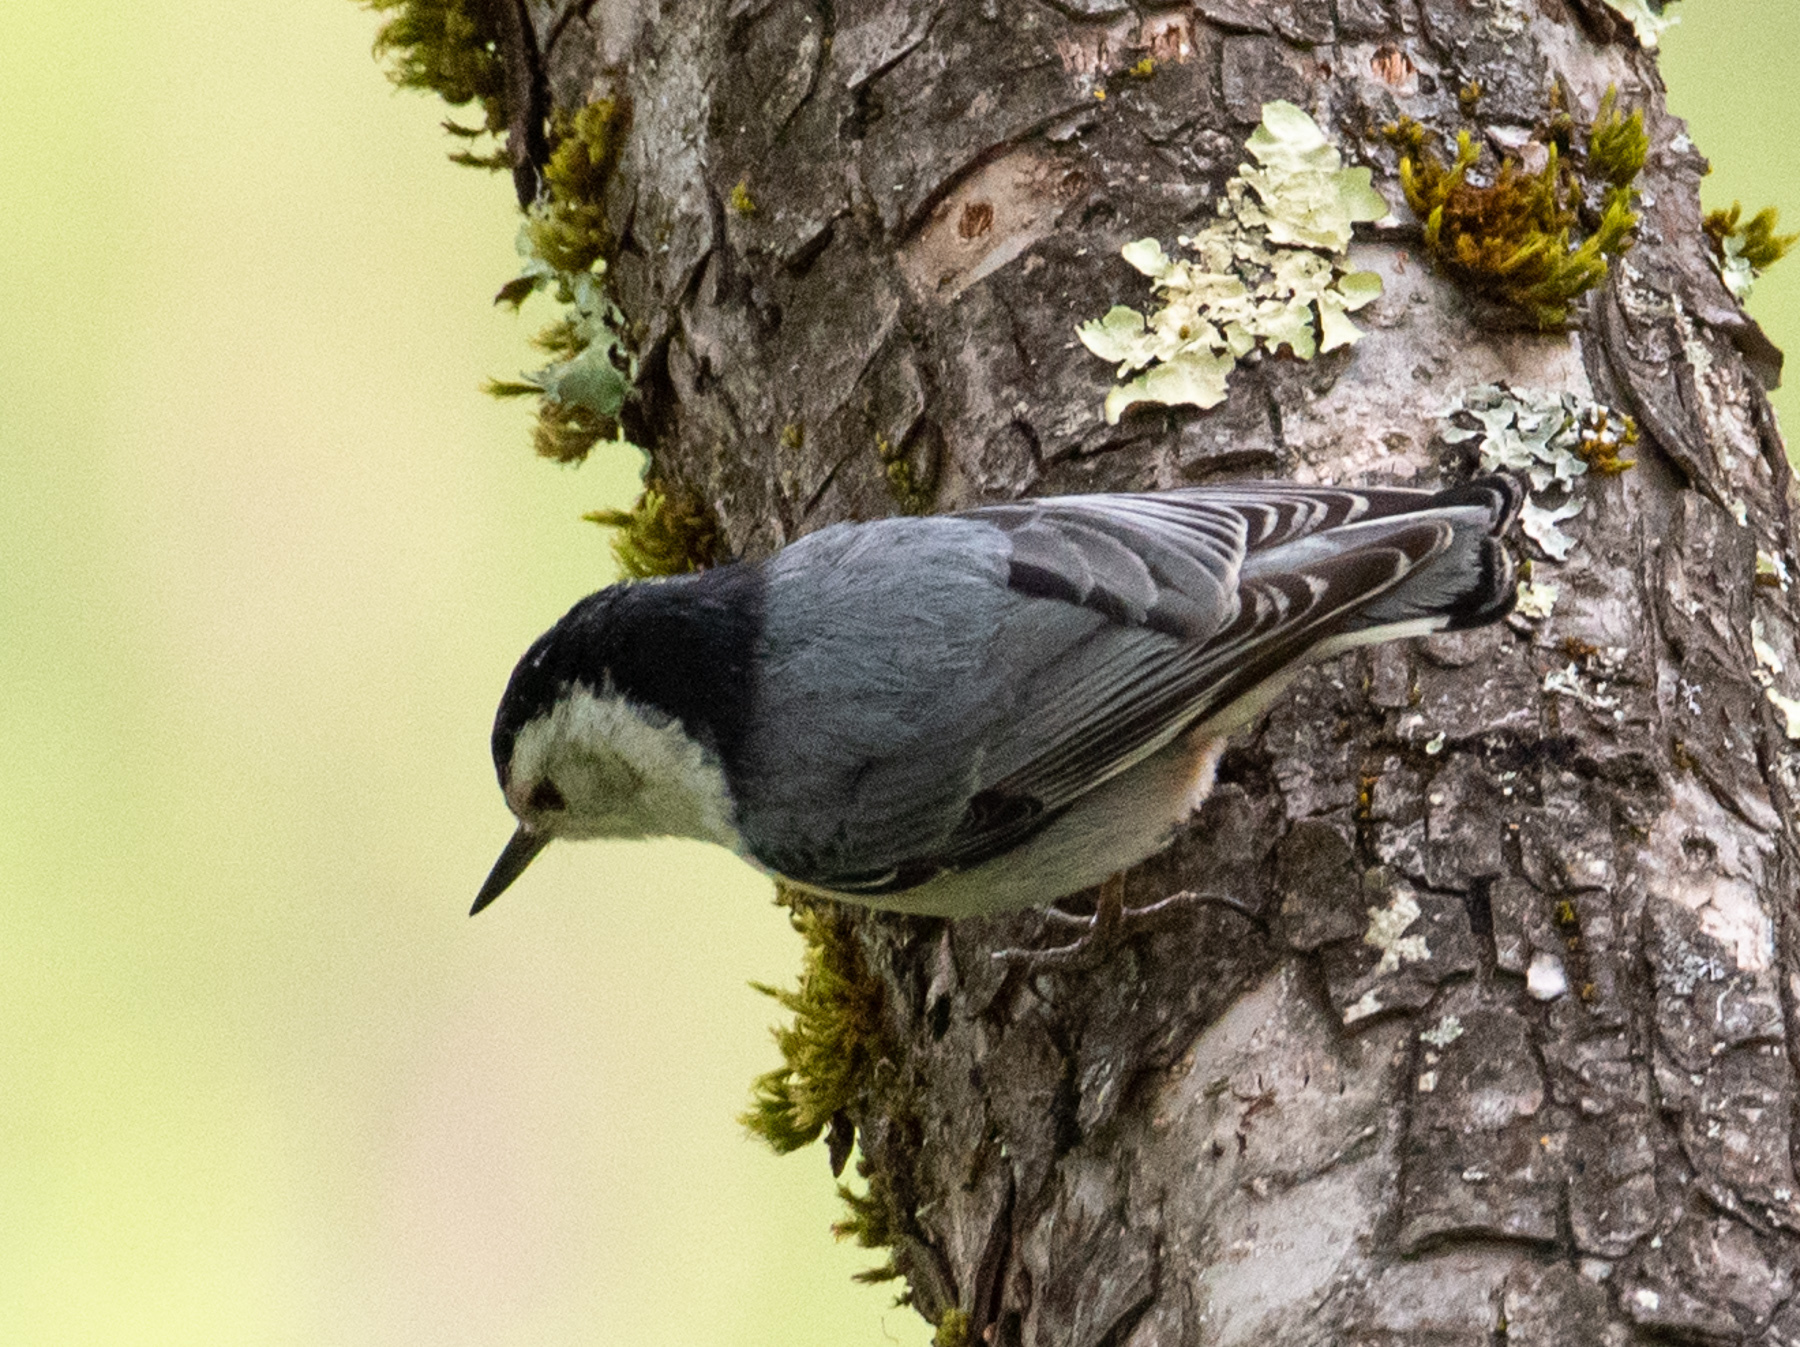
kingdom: Animalia
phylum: Chordata
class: Aves
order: Passeriformes
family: Sittidae
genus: Sitta
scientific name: Sitta carolinensis
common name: White-breasted nuthatch
